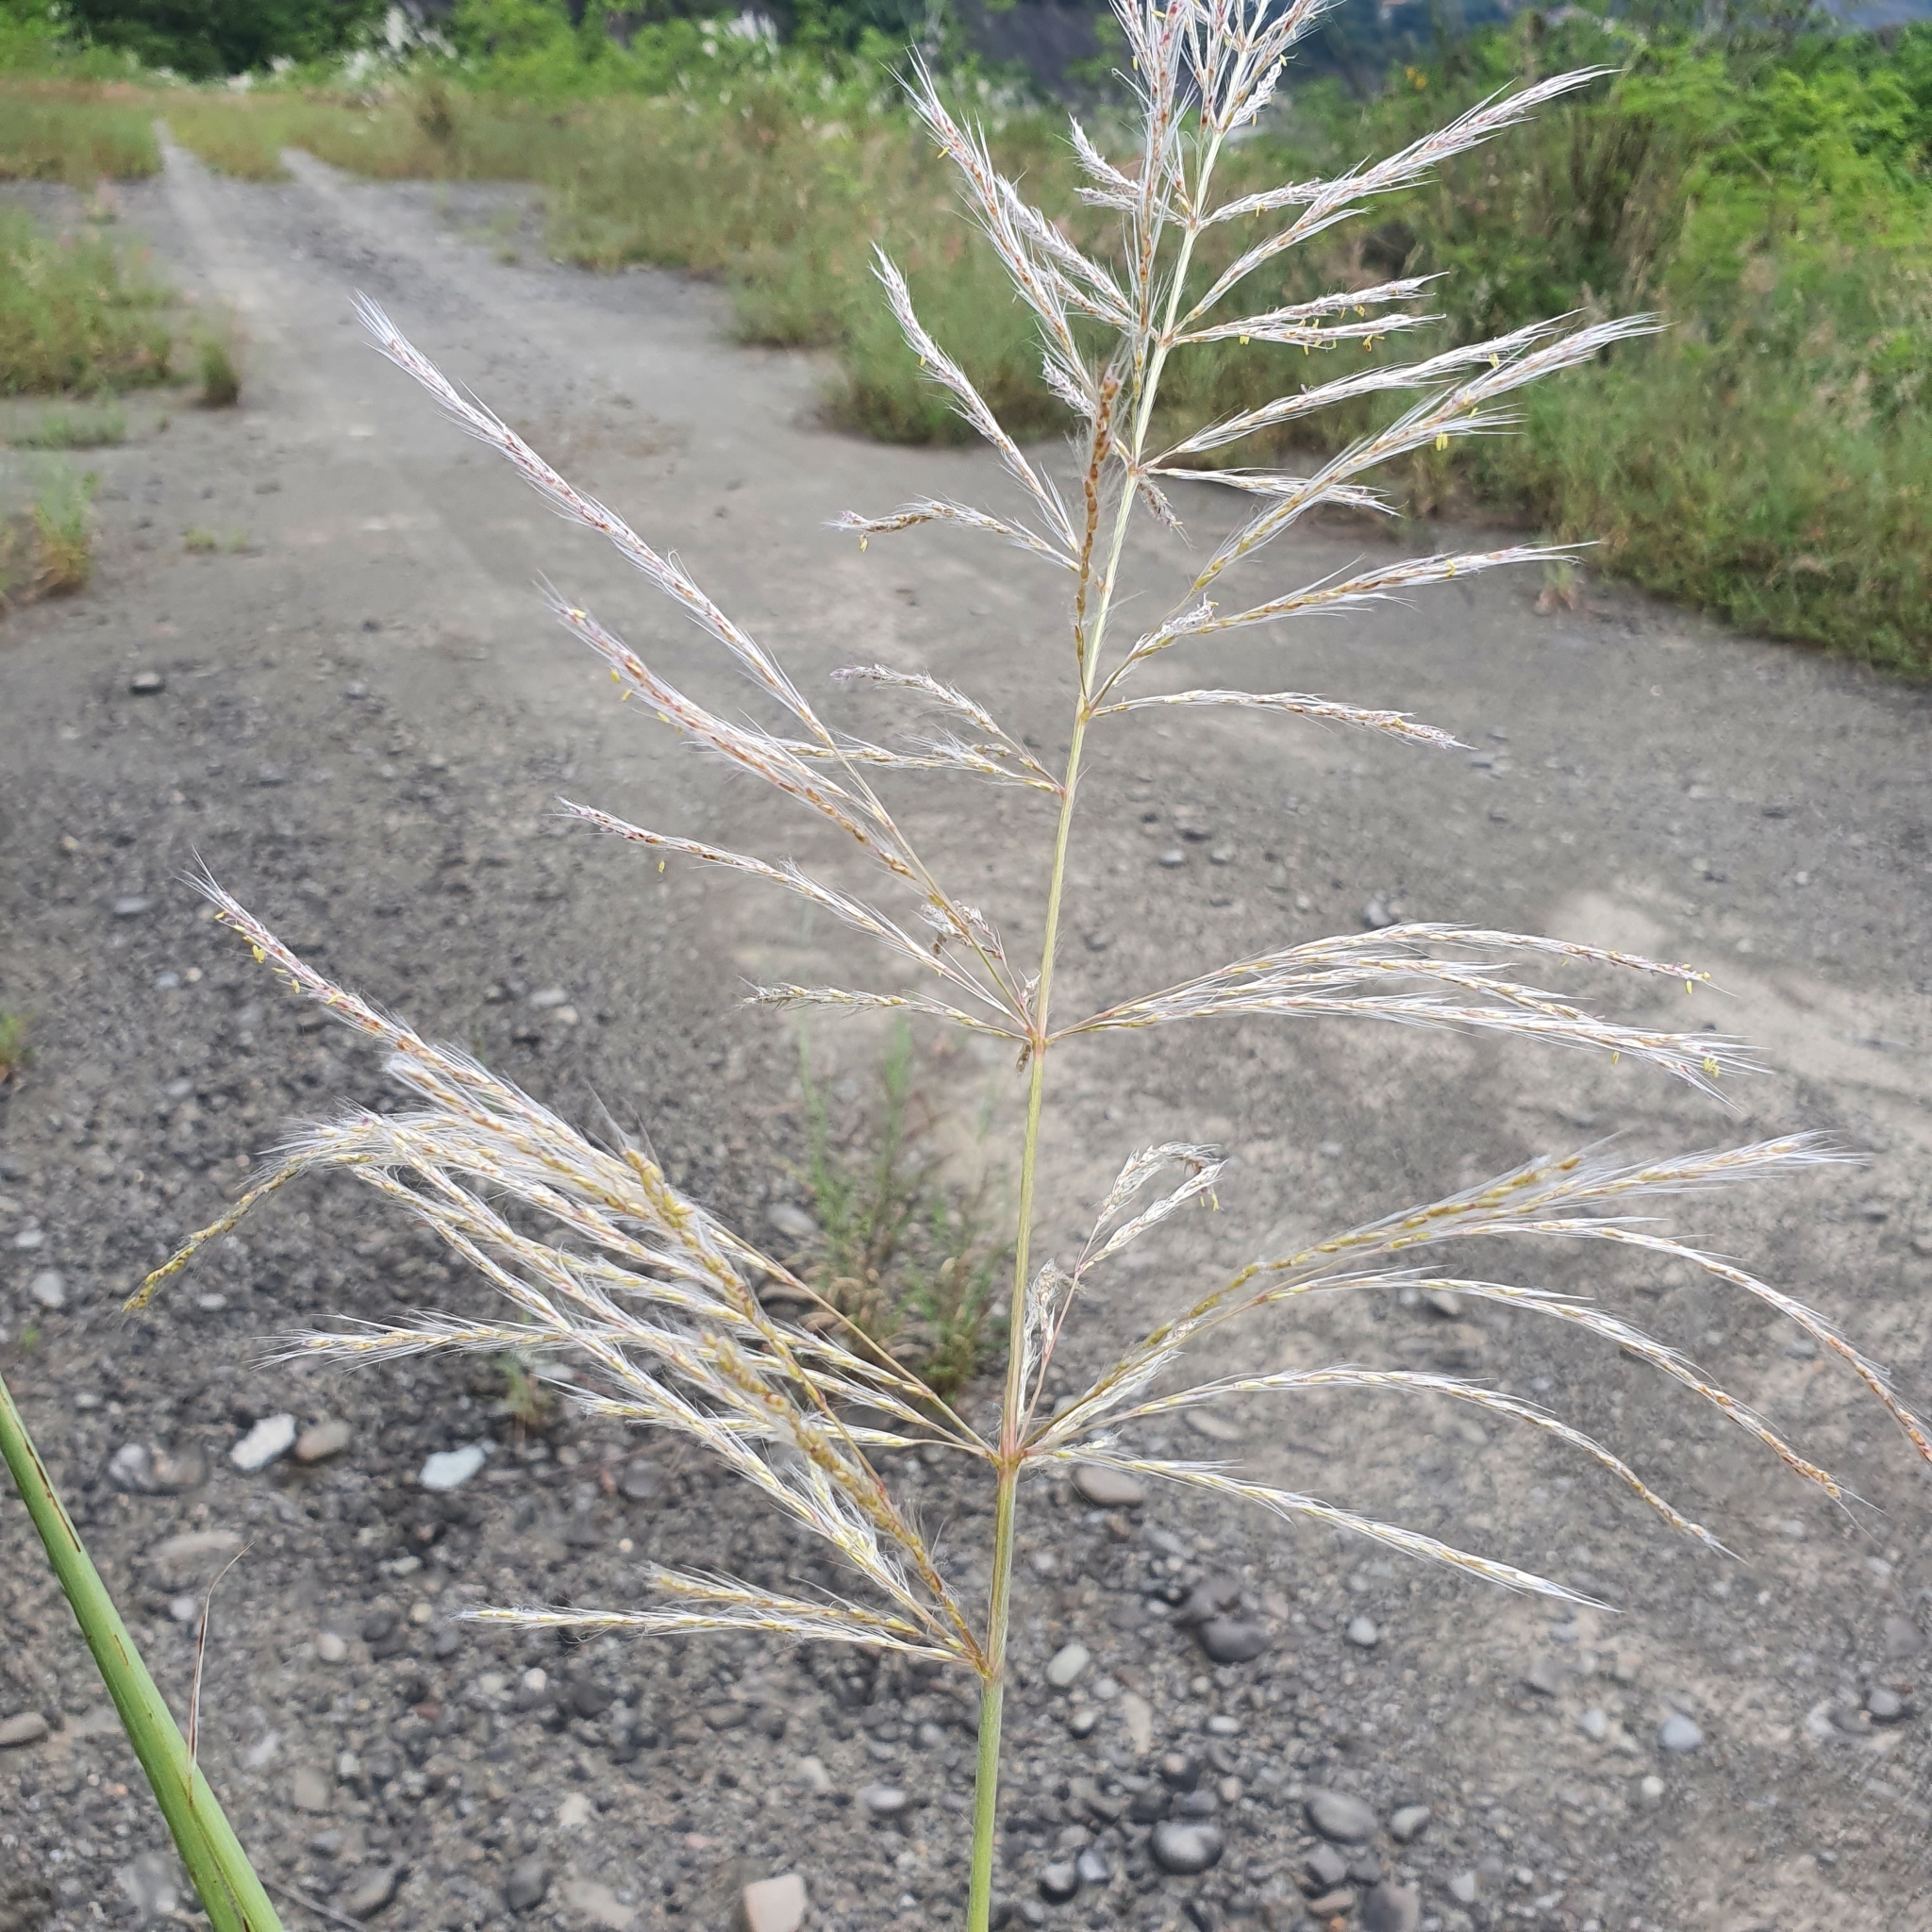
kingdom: Plantae
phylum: Tracheophyta
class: Liliopsida
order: Poales
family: Poaceae
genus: Saccharum
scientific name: Saccharum spontaneum
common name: Wild sugarcane
